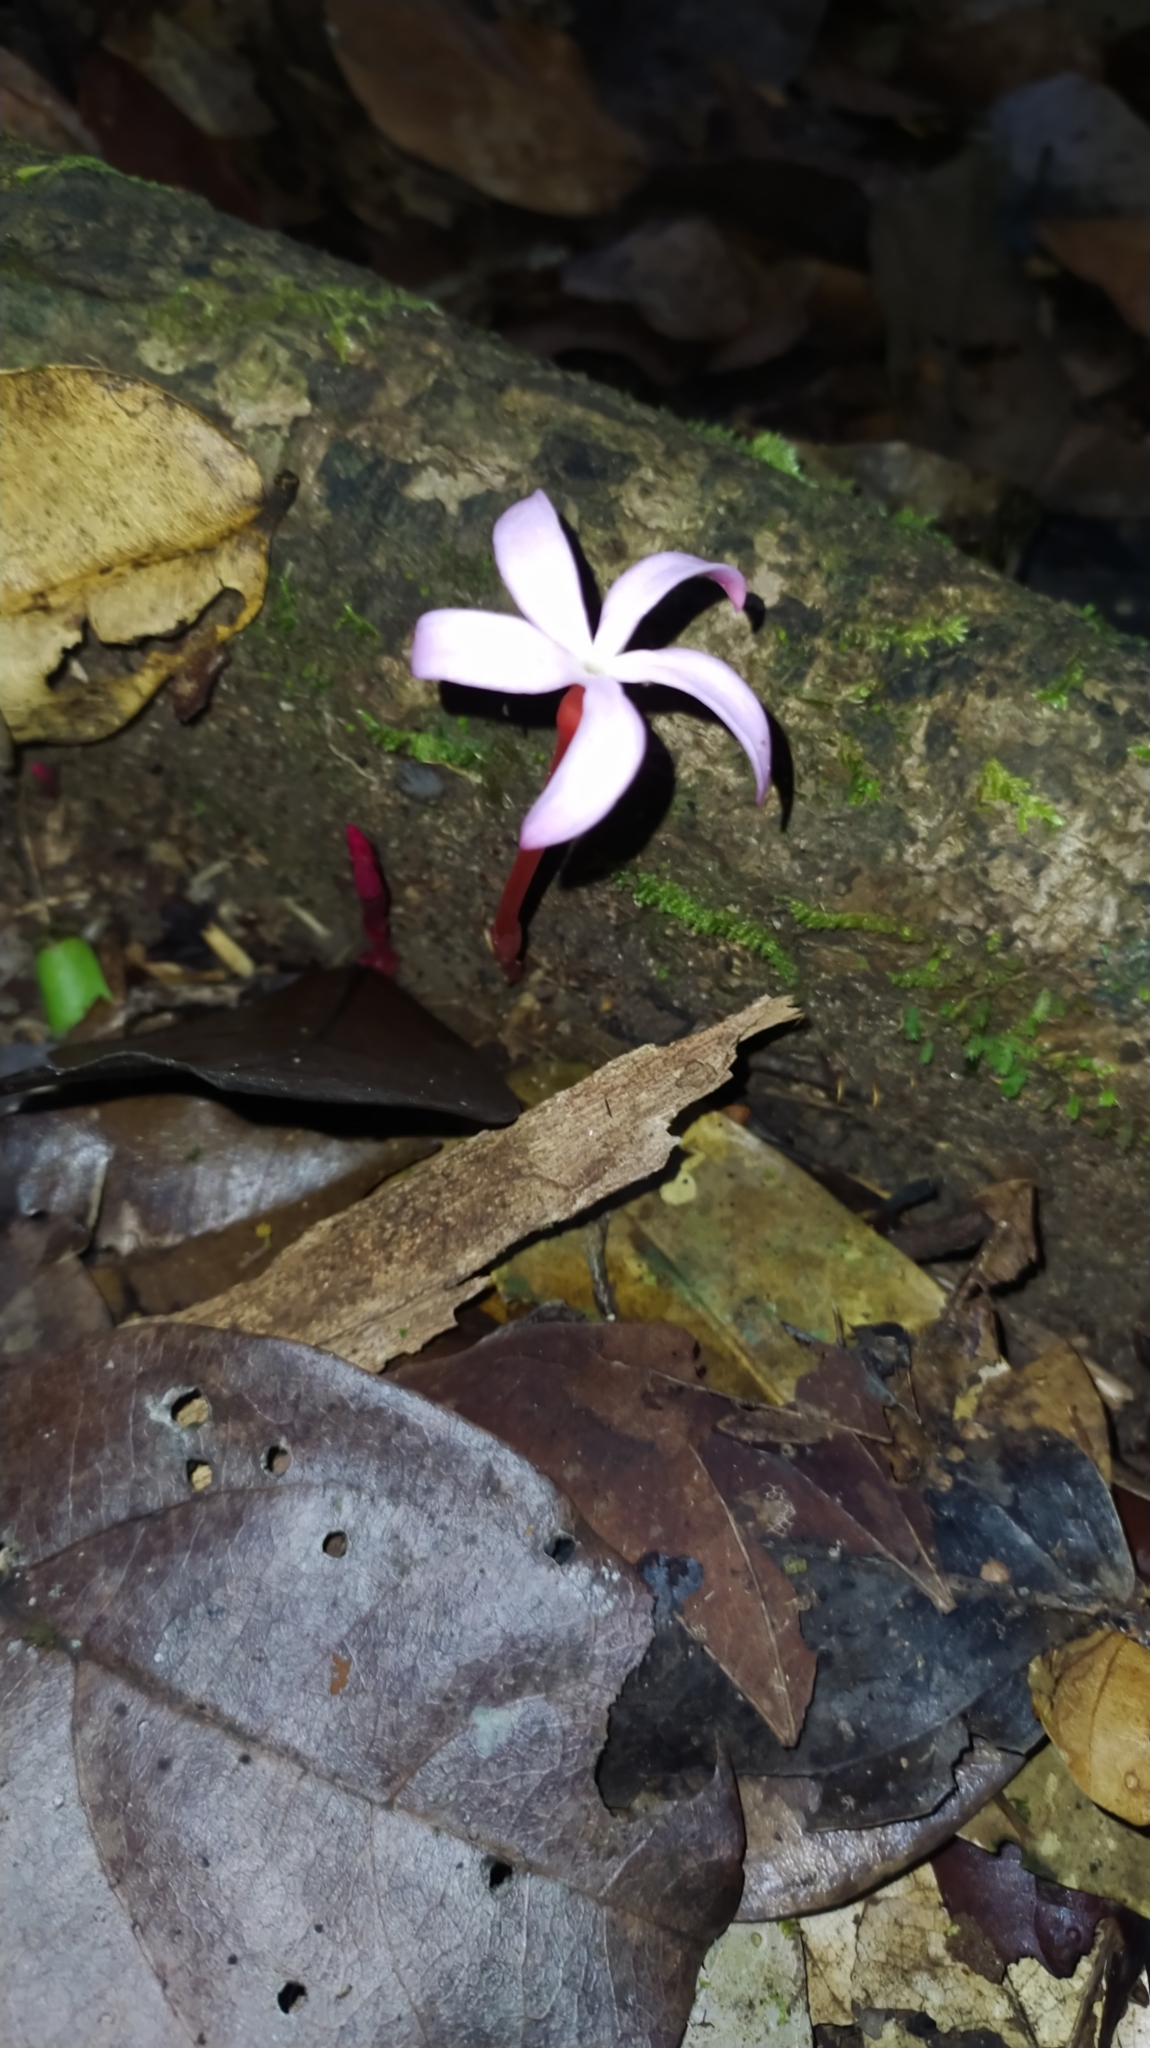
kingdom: Plantae
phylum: Tracheophyta
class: Magnoliopsida
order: Gentianales
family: Gentianaceae
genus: Voyria
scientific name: Voyria rosea
